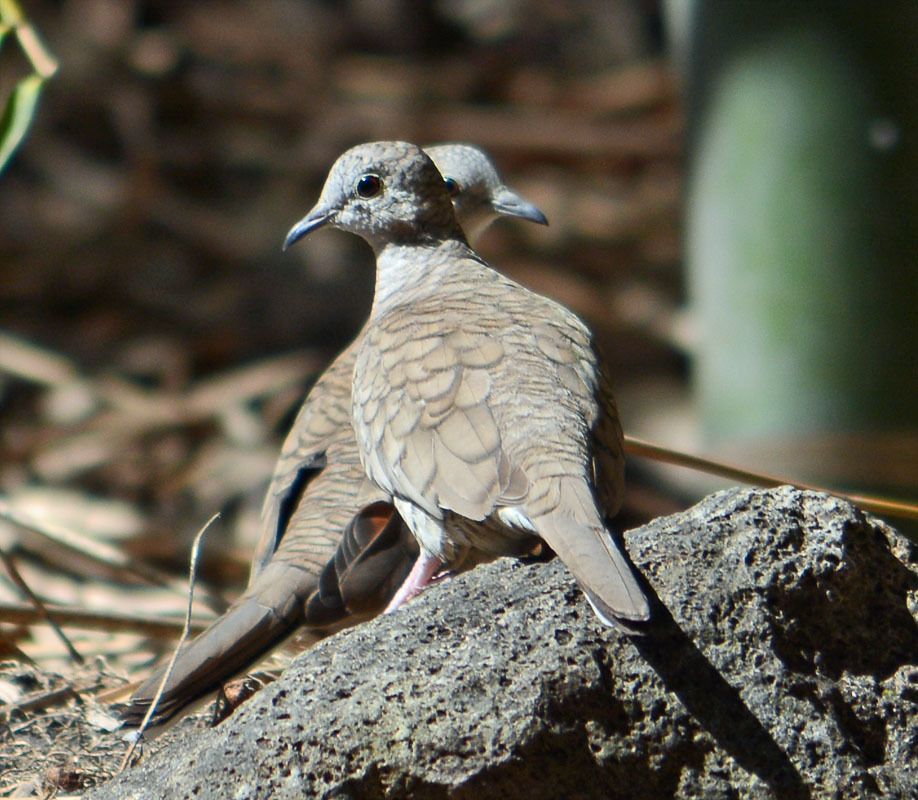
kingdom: Animalia
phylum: Chordata
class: Aves
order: Columbiformes
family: Columbidae
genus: Columbina
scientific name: Columbina inca
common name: Inca dove
